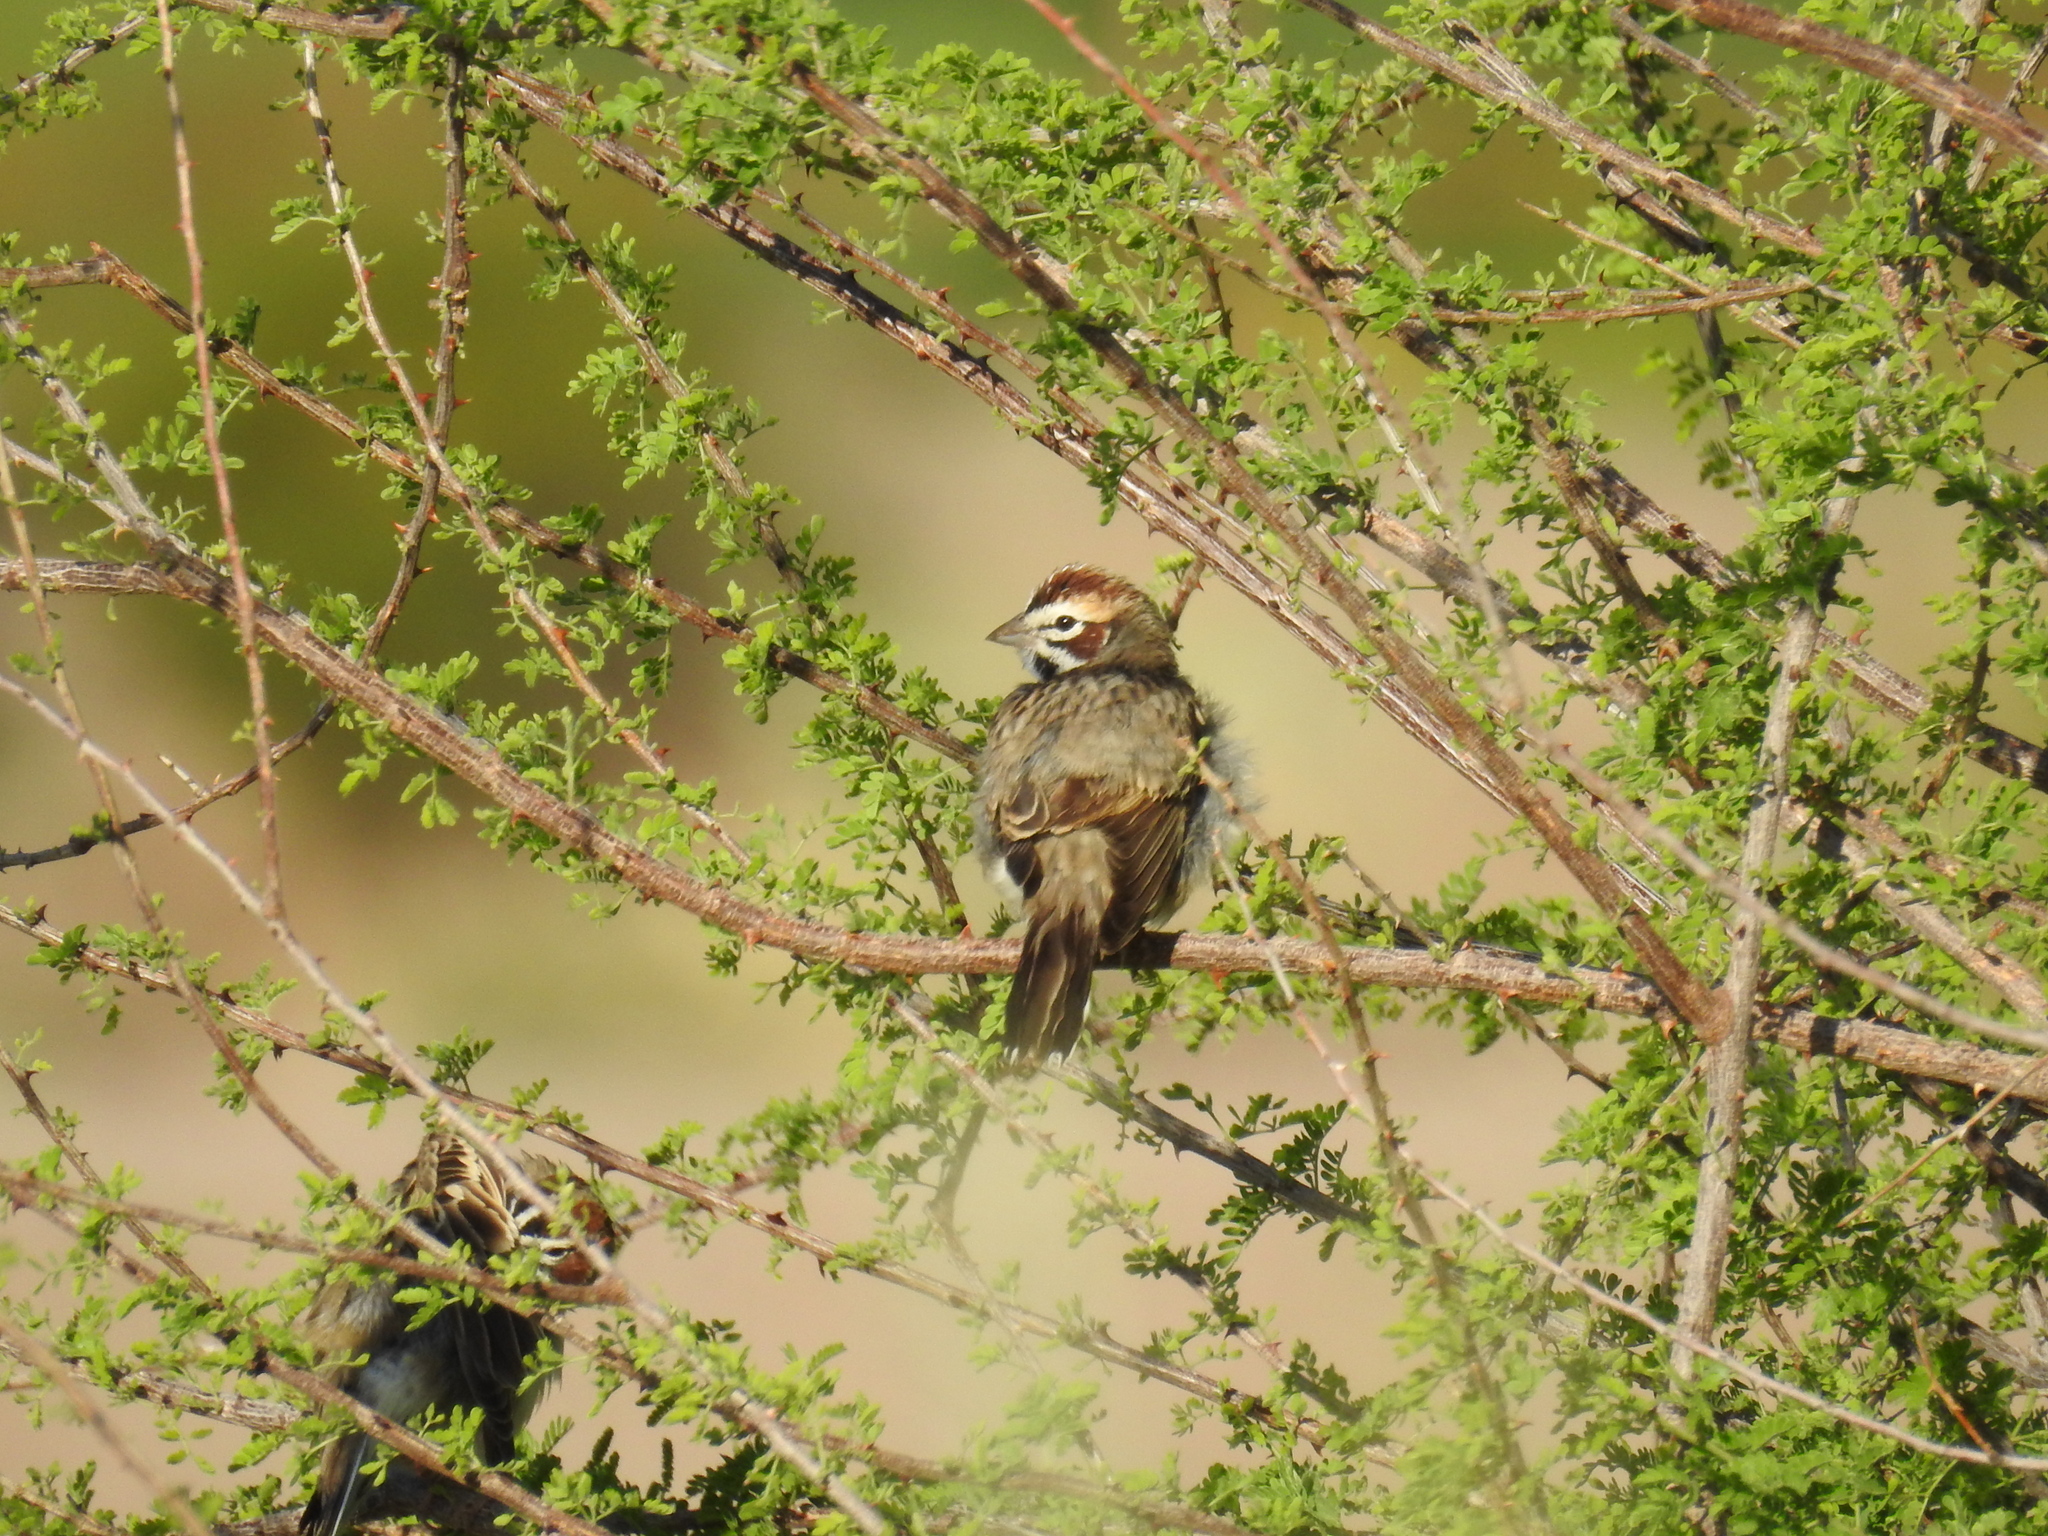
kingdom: Animalia
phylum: Chordata
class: Aves
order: Passeriformes
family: Passerellidae
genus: Chondestes
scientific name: Chondestes grammacus
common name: Lark sparrow
